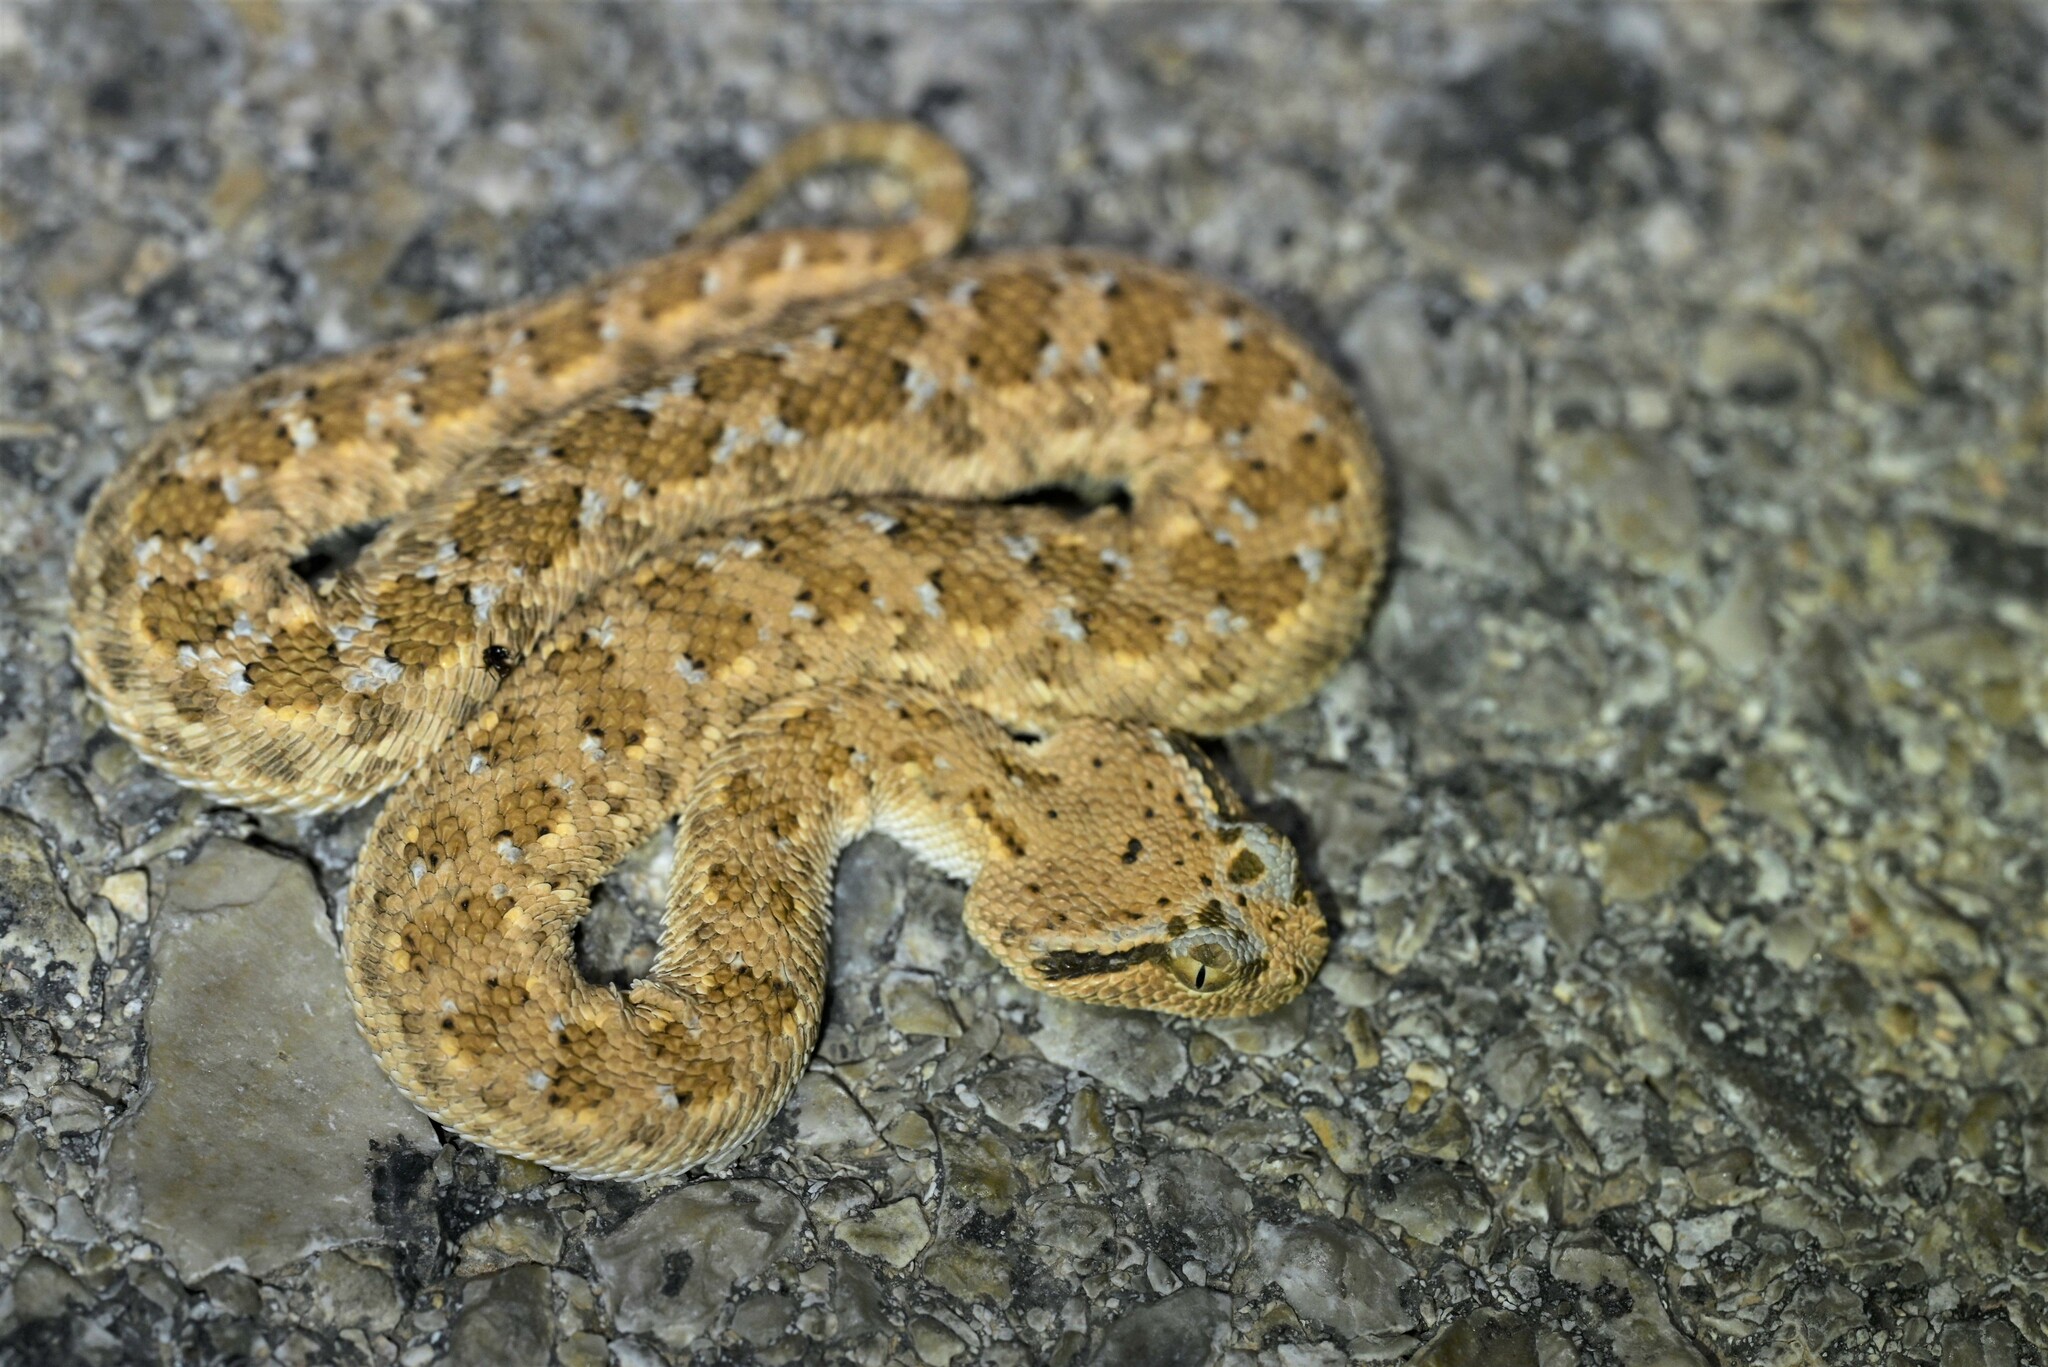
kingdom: Animalia
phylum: Chordata
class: Squamata
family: Viperidae
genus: Cerastes
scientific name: Cerastes gasperettii
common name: Arabian horned viper
